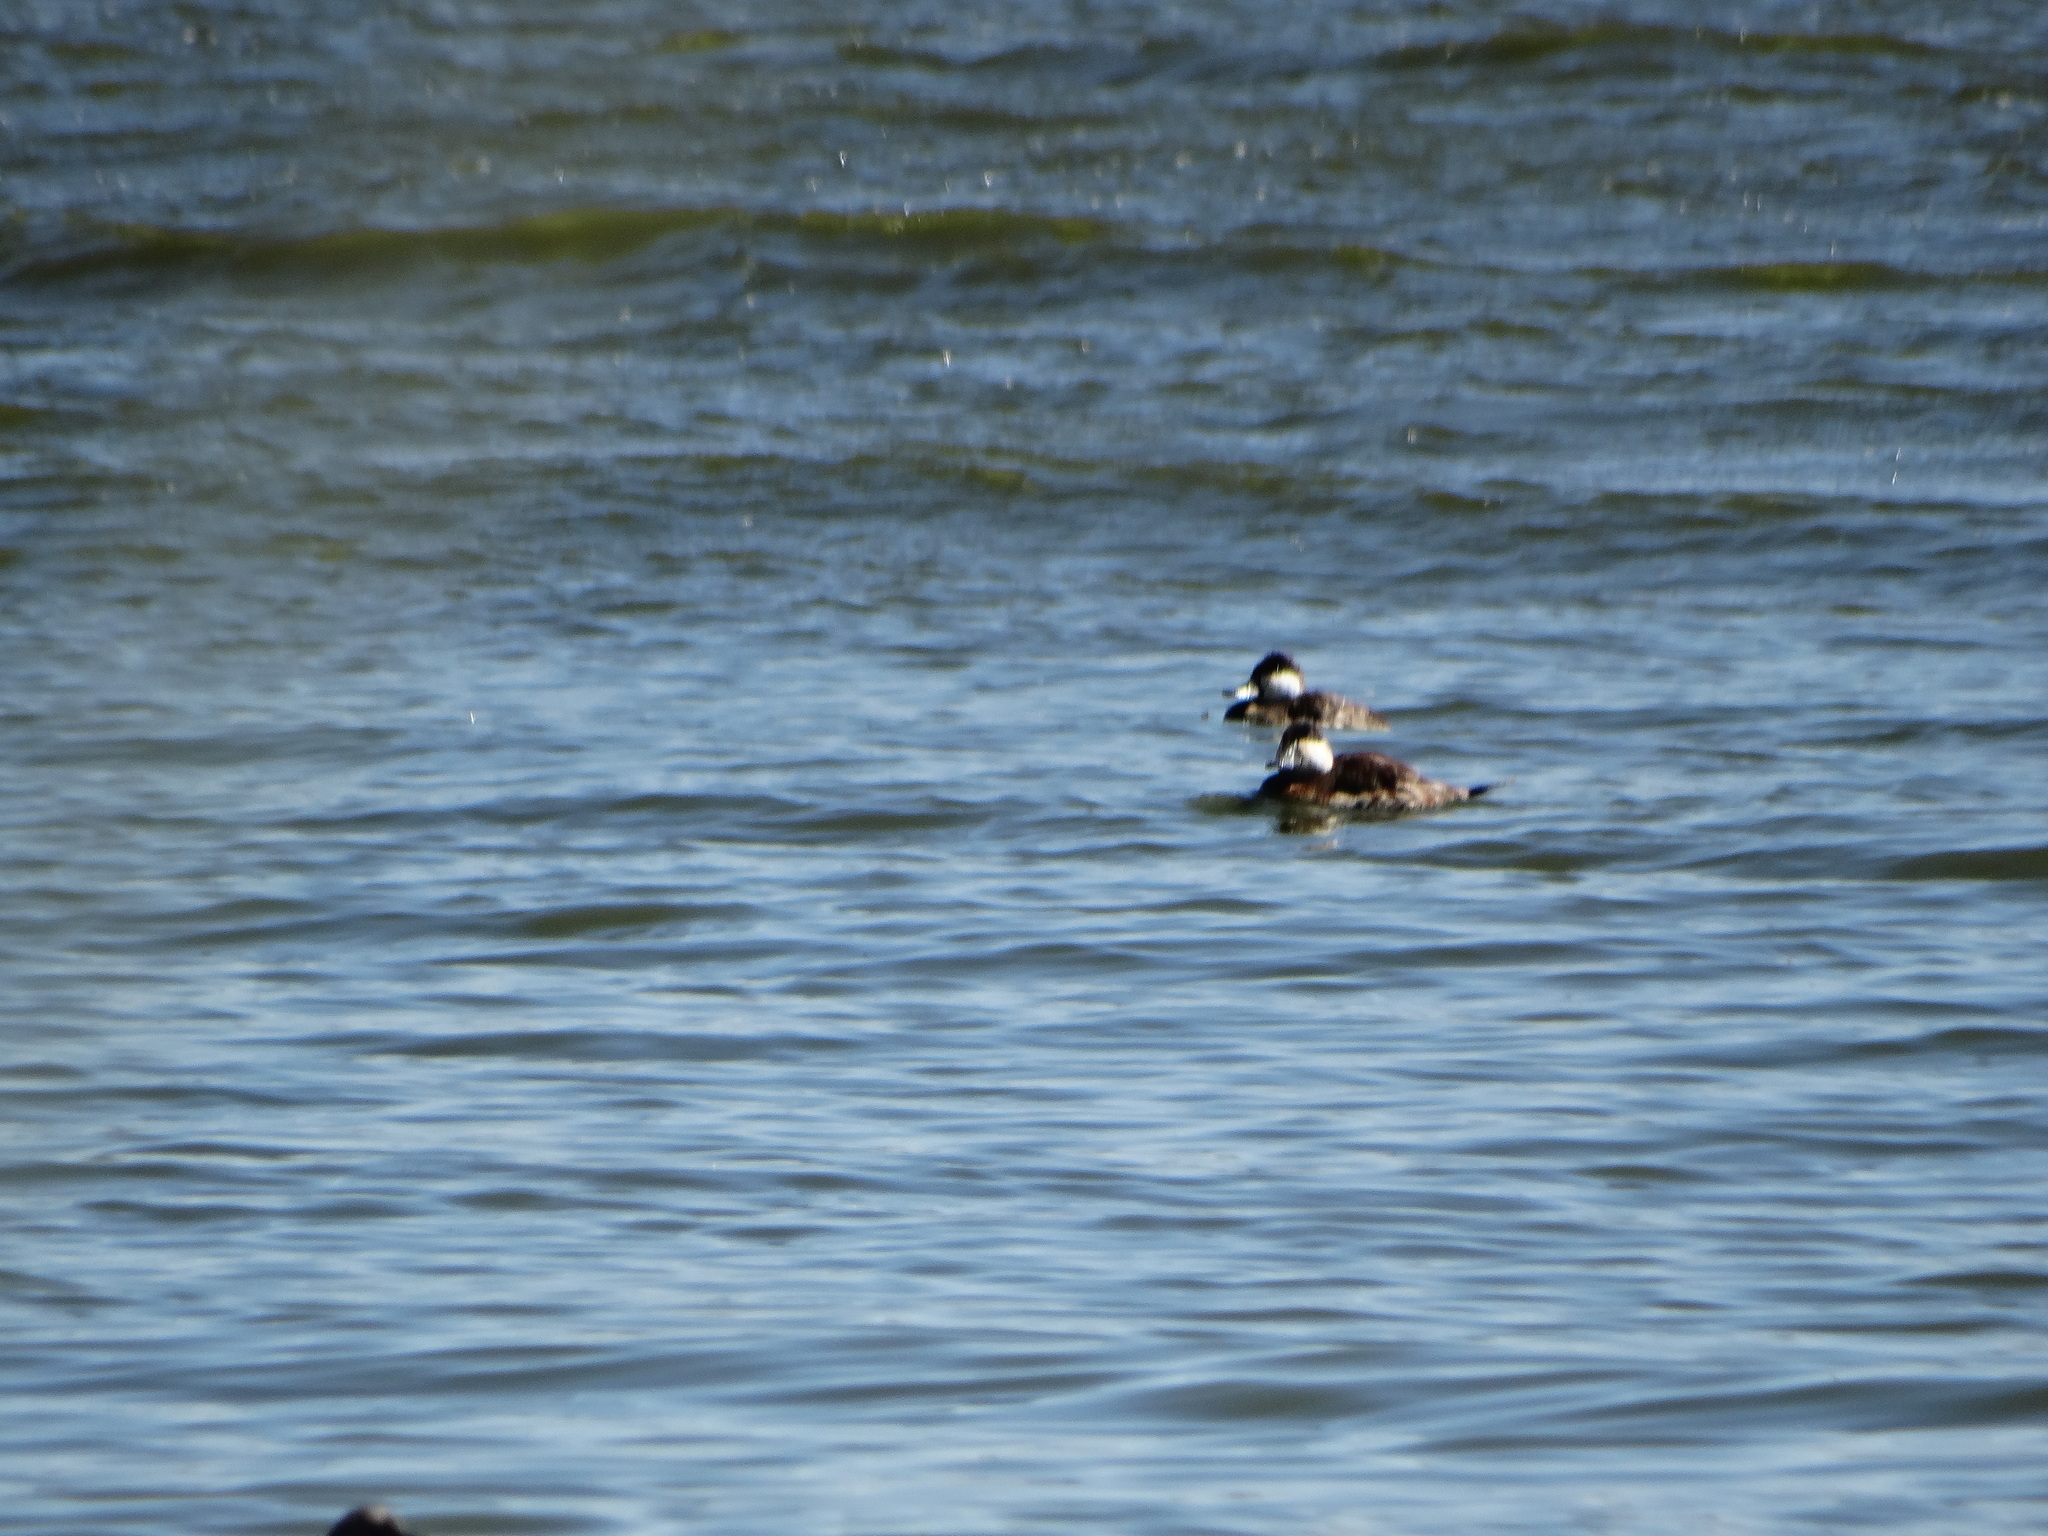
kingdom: Animalia
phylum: Chordata
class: Aves
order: Anseriformes
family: Anatidae
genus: Oxyura
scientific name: Oxyura jamaicensis
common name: Ruddy duck
